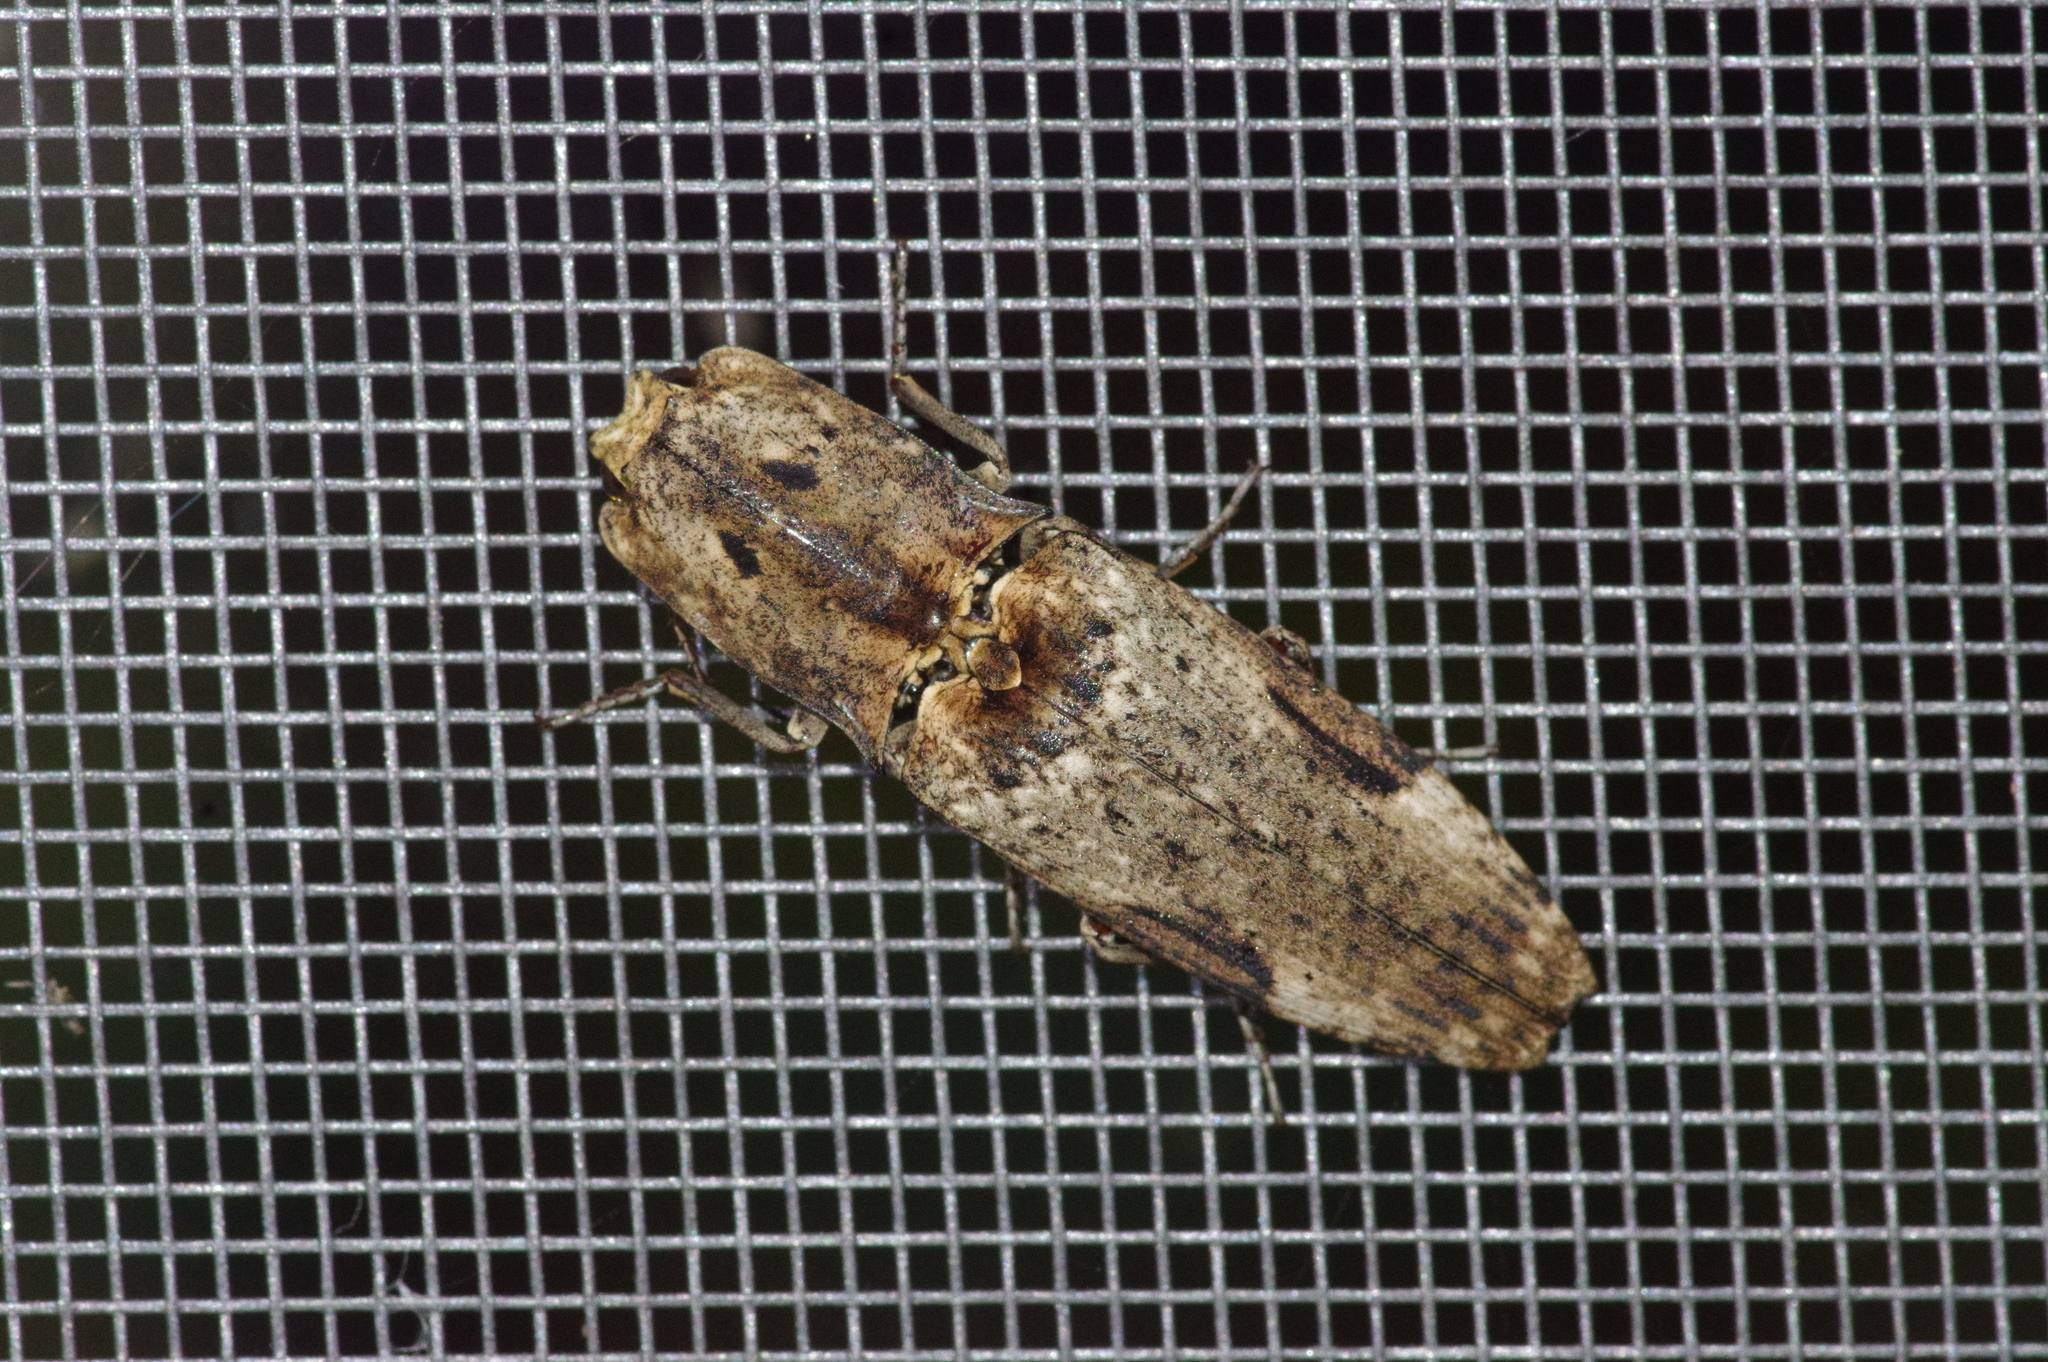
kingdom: Animalia
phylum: Arthropoda
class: Insecta
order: Coleoptera
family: Elateridae
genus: Cryptalaus
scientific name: Cryptalaus larvatus
